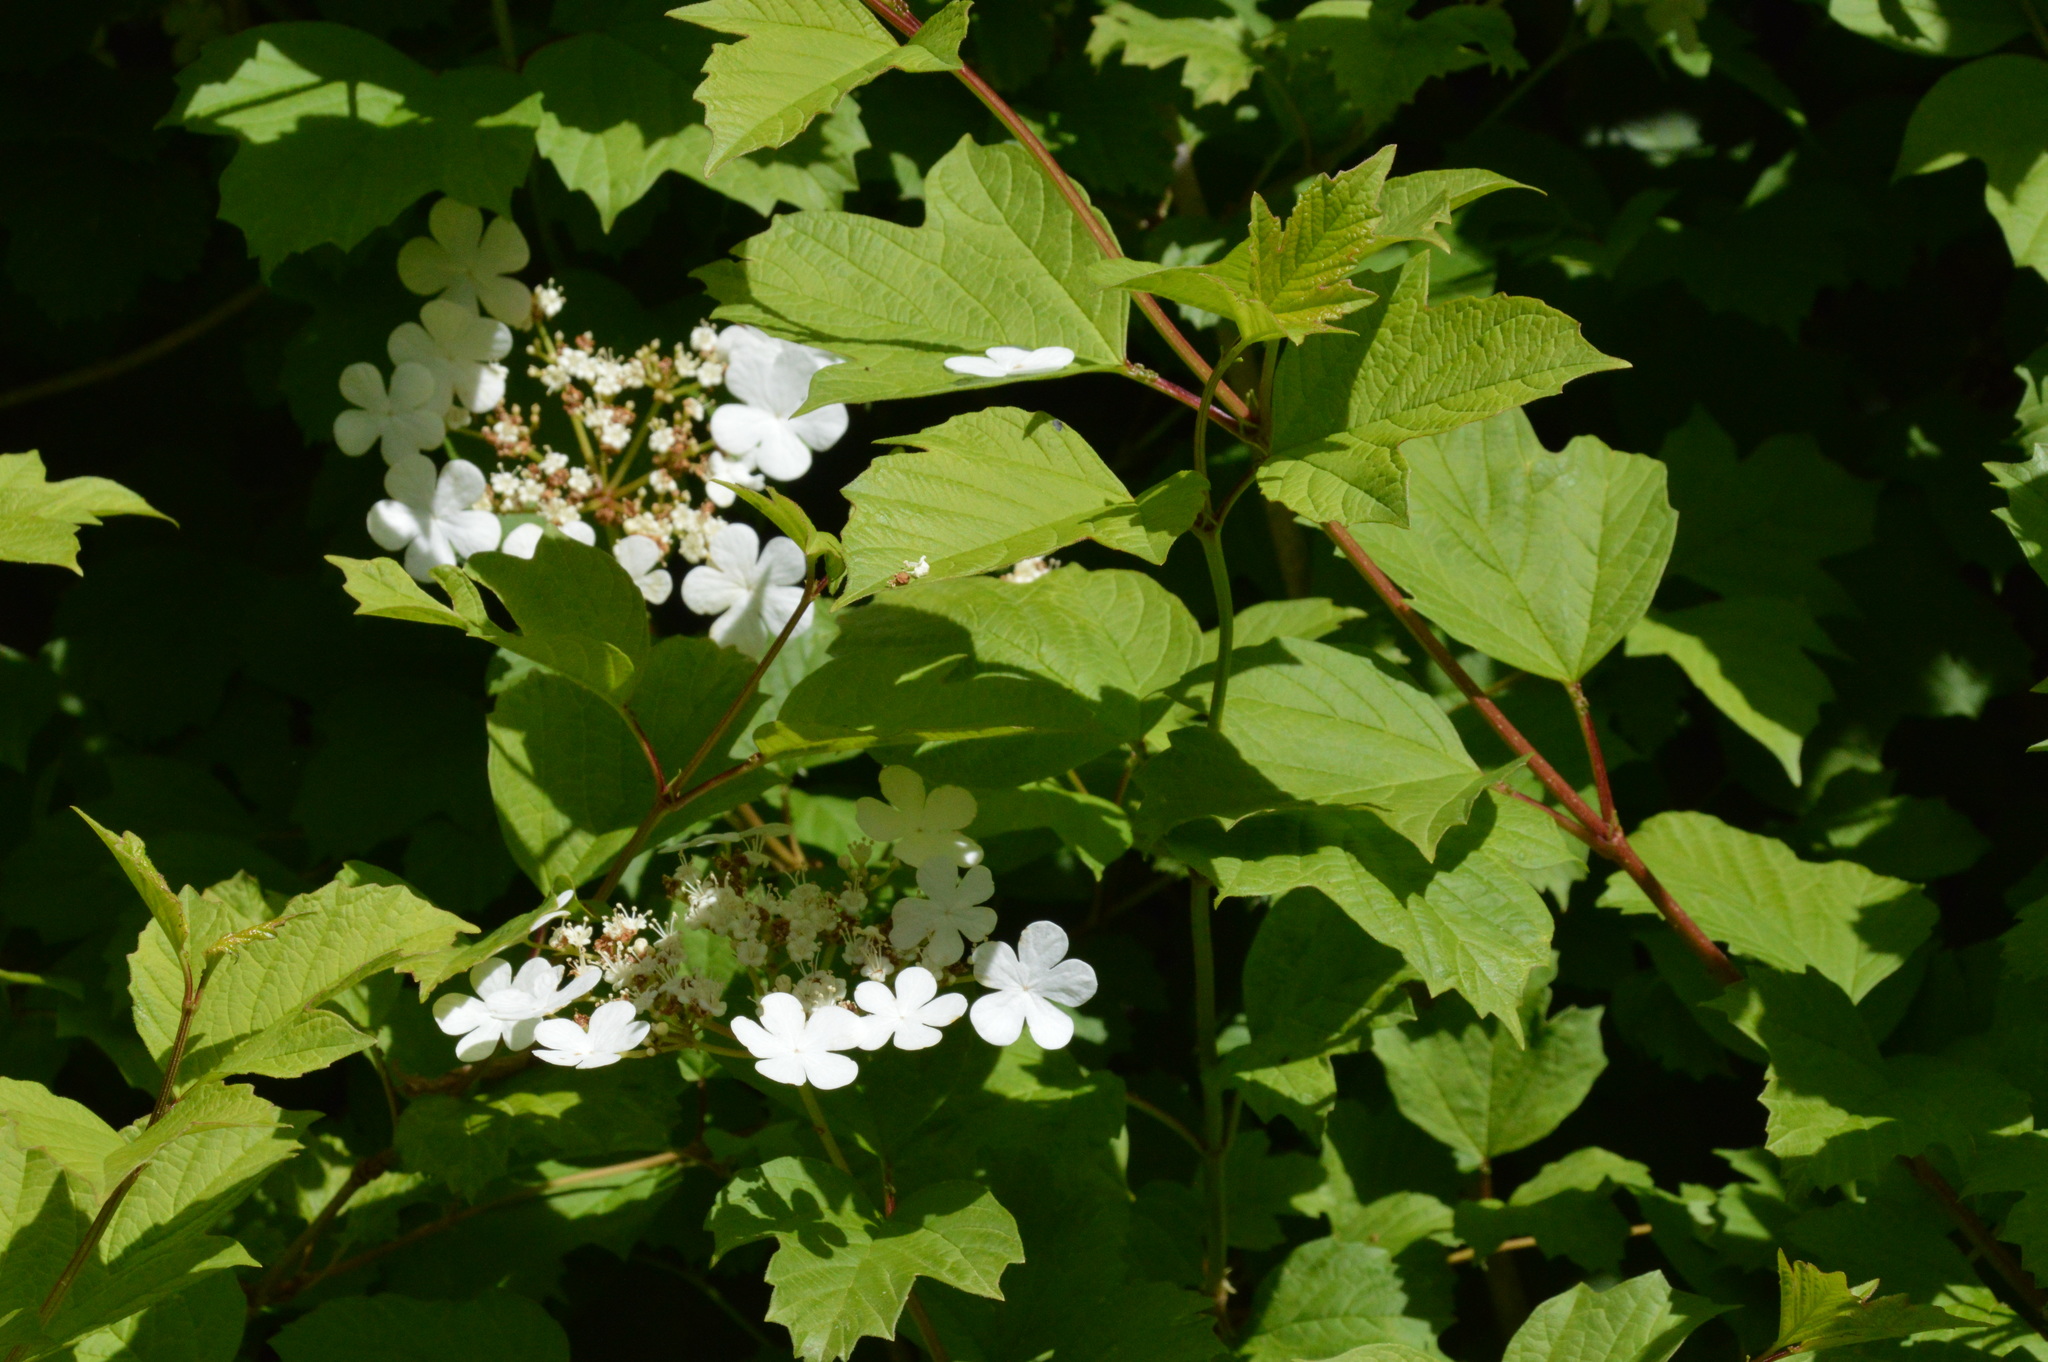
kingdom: Plantae
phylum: Tracheophyta
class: Magnoliopsida
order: Dipsacales
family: Viburnaceae
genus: Viburnum
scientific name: Viburnum opulus
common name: Guelder-rose
